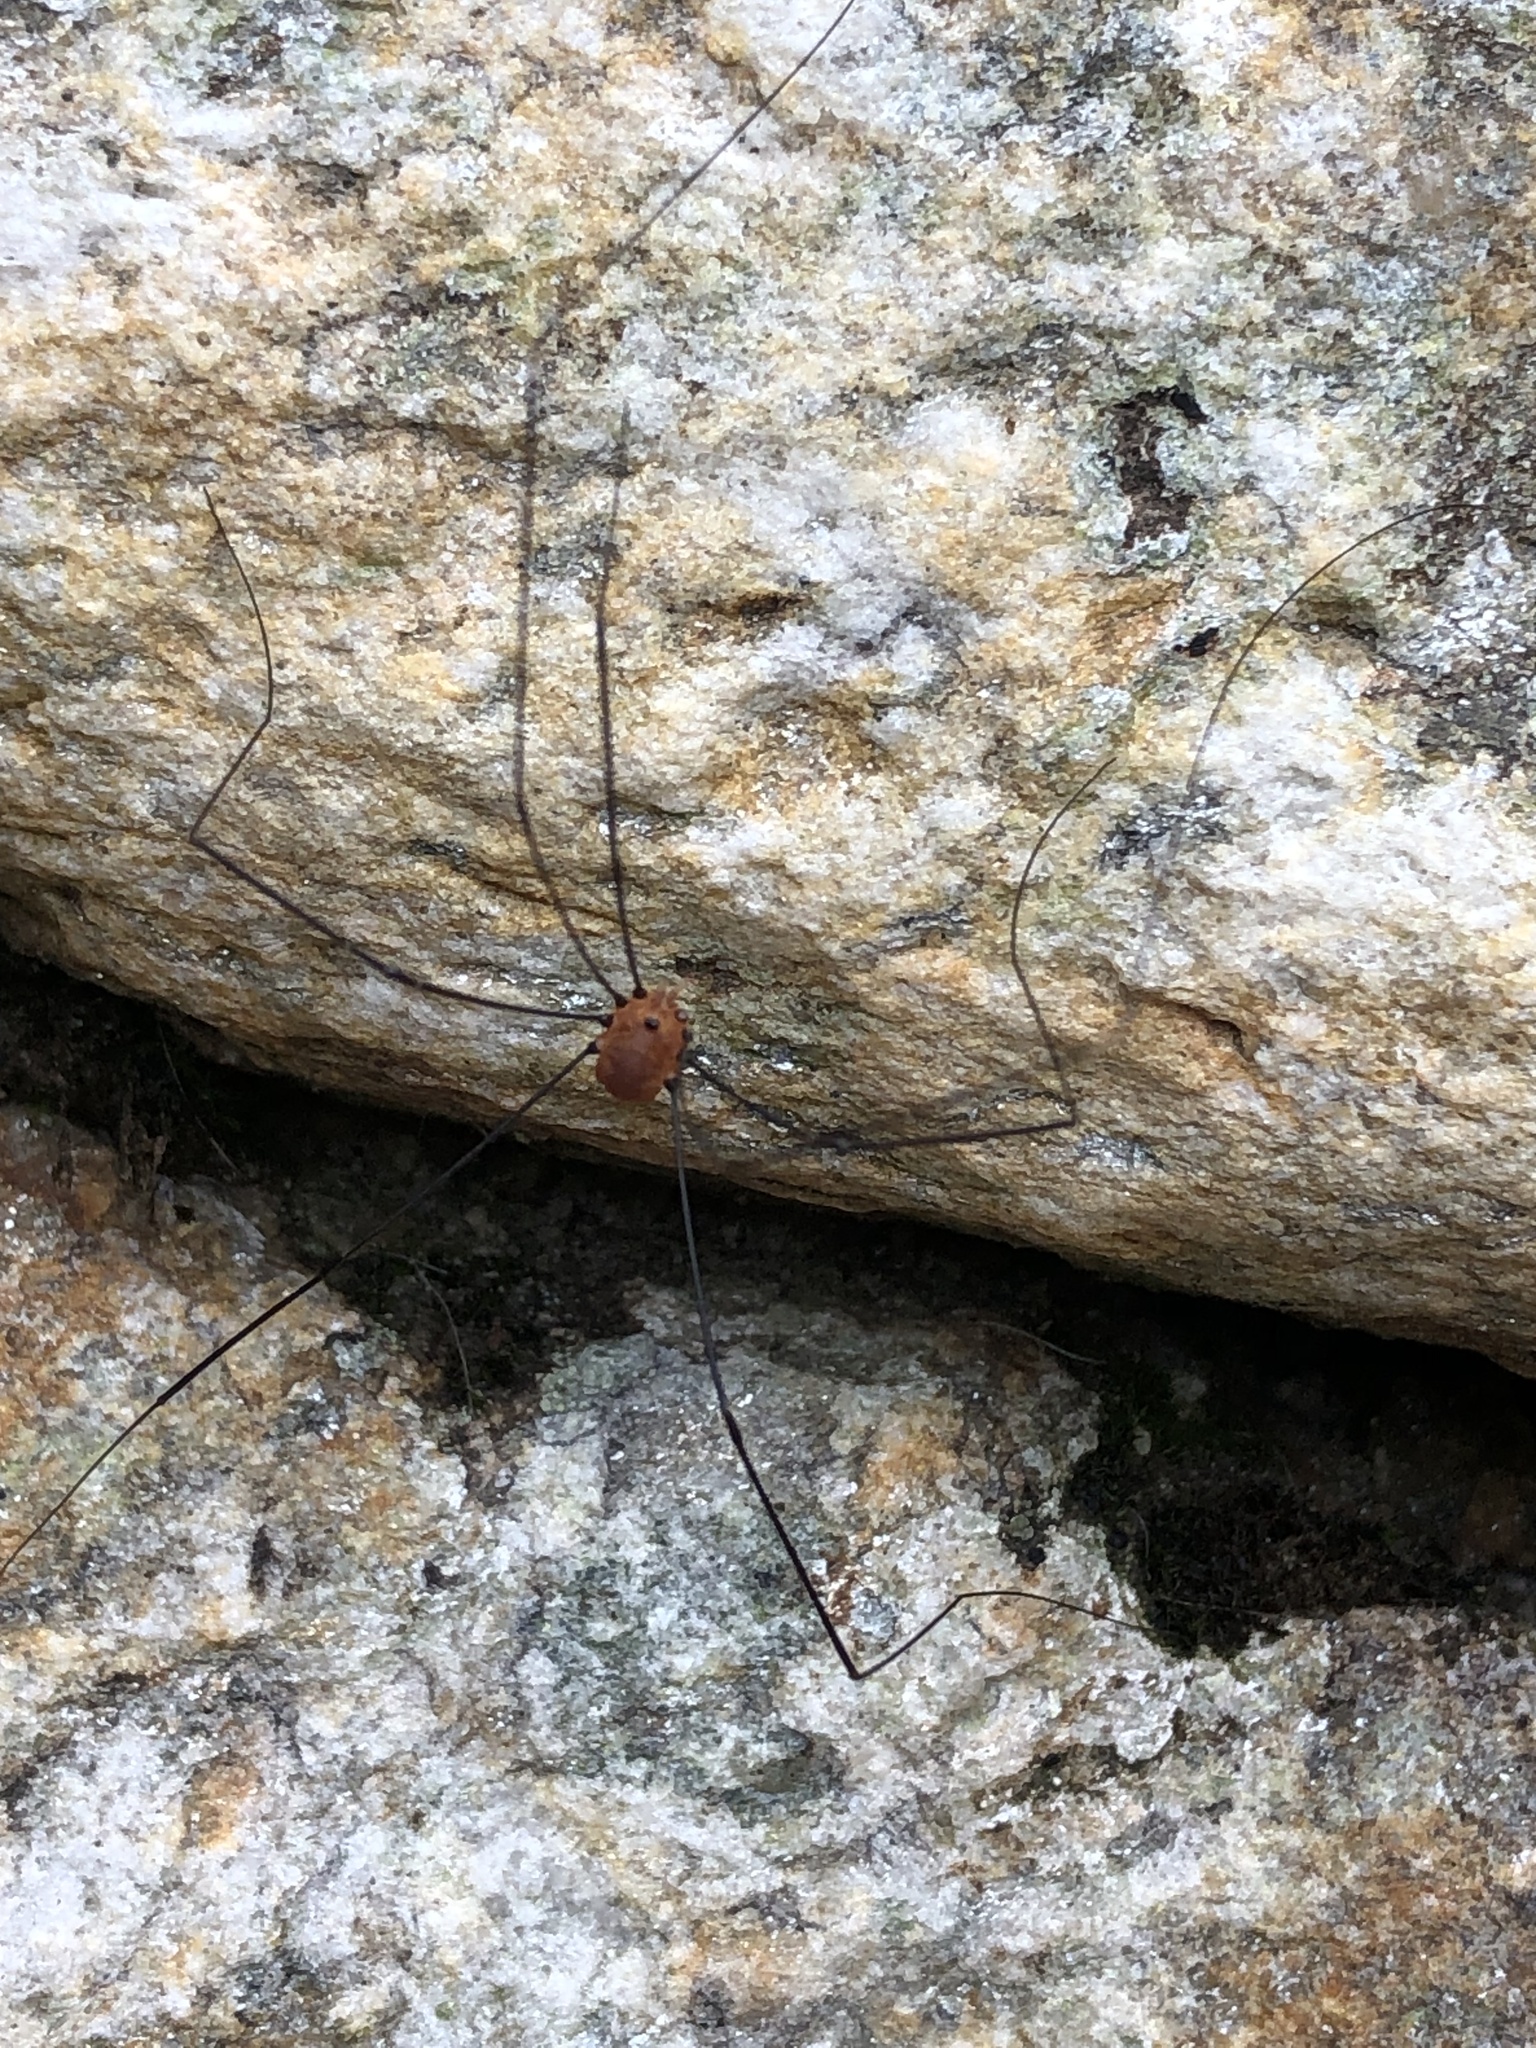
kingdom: Animalia
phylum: Arthropoda
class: Arachnida
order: Opiliones
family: Sclerosomatidae
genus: Leiobunum
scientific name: Leiobunum aldrichi
